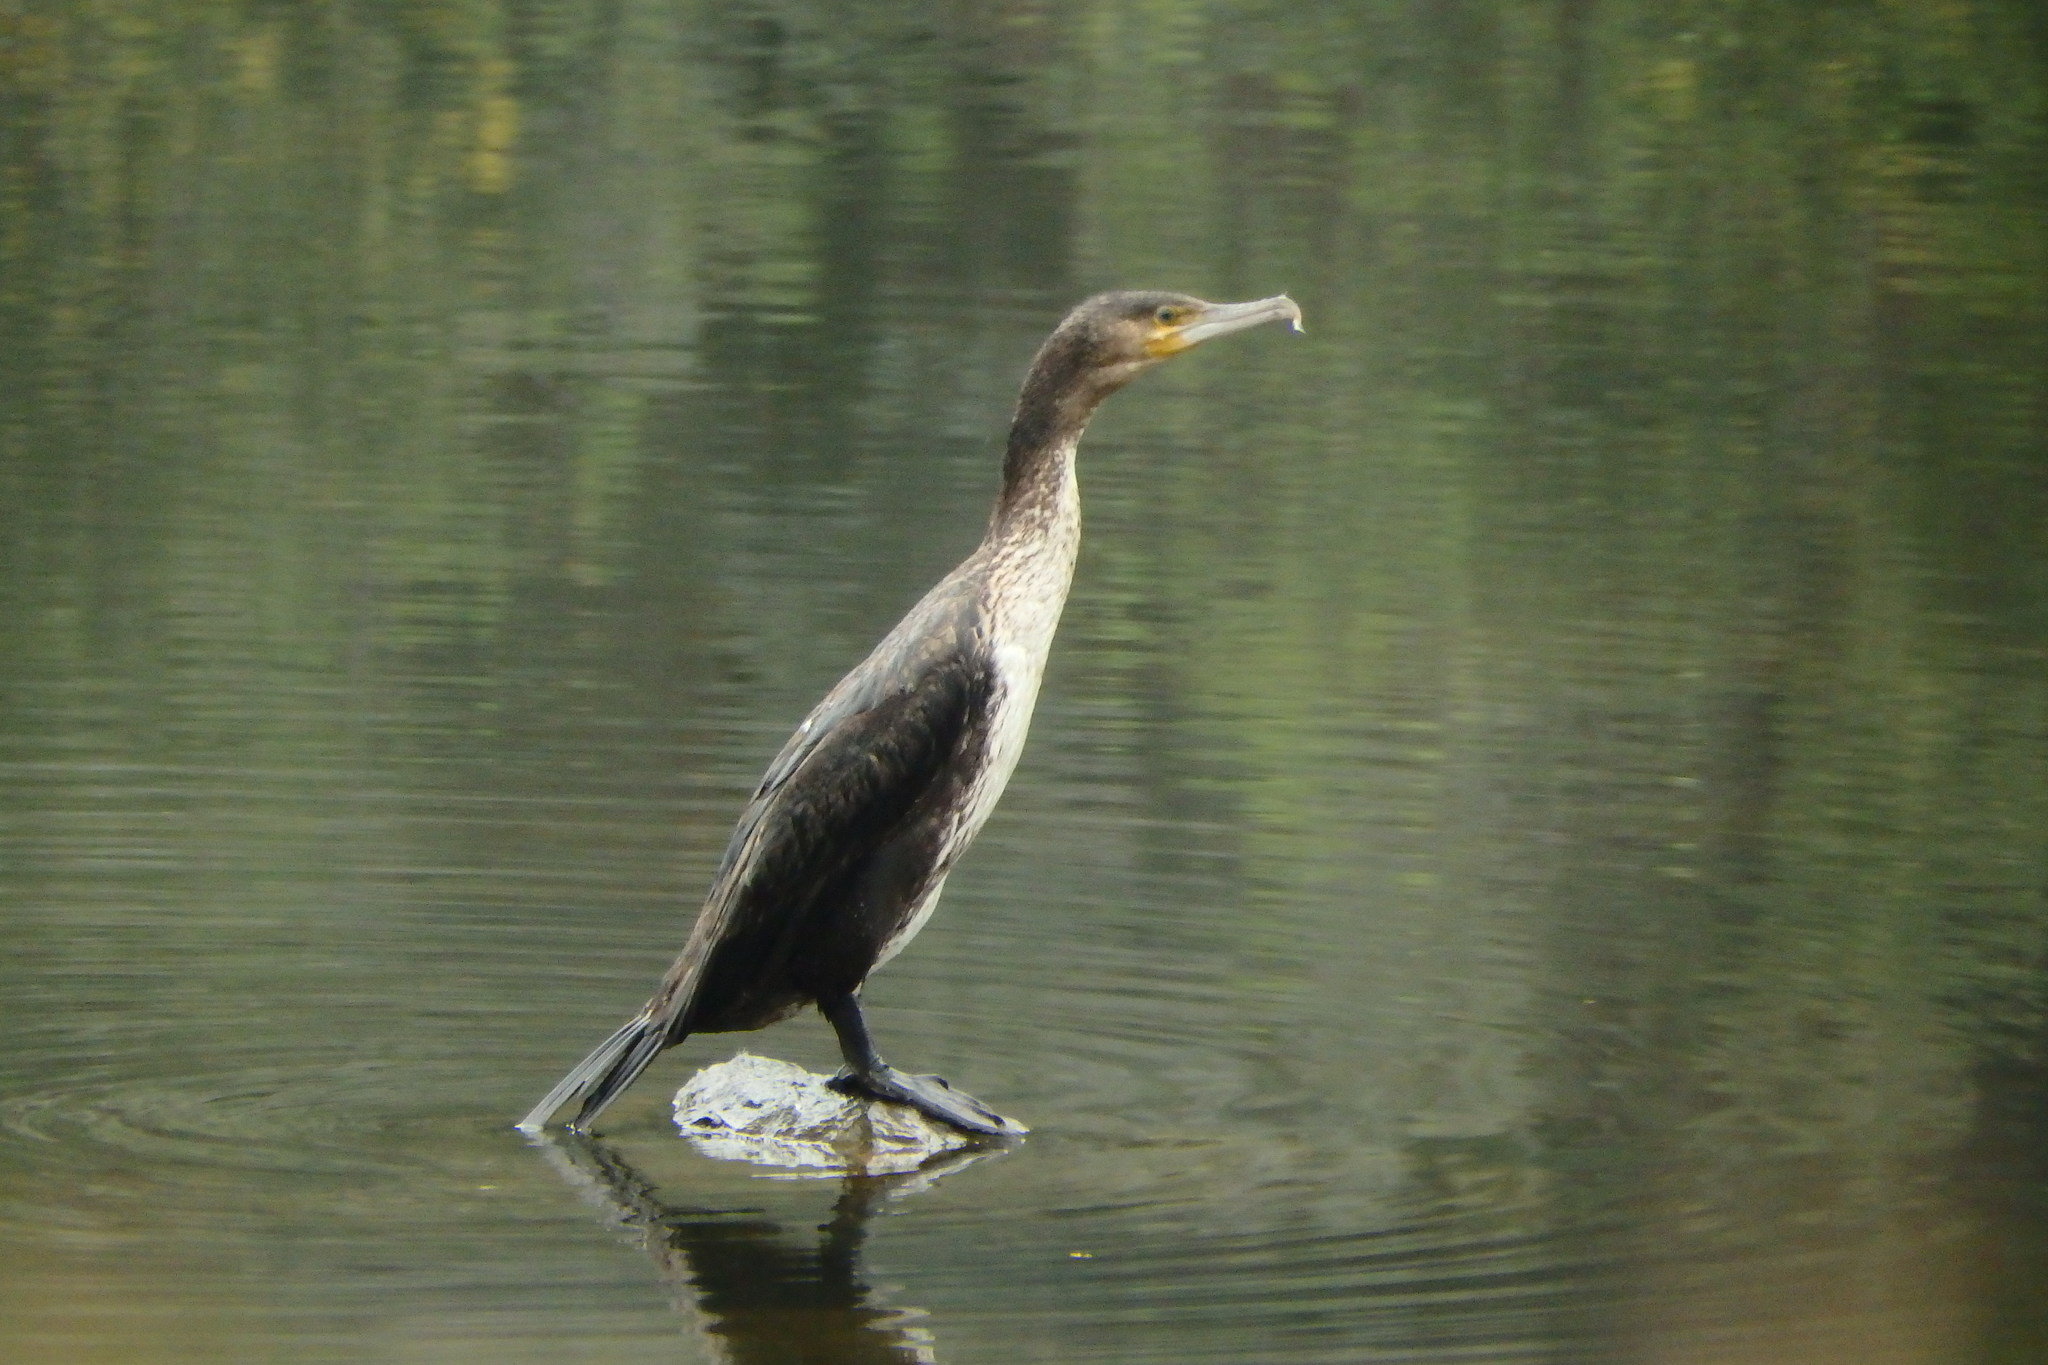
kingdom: Animalia
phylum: Chordata
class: Aves
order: Suliformes
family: Phalacrocoracidae
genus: Phalacrocorax
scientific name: Phalacrocorax carbo
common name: Great cormorant
